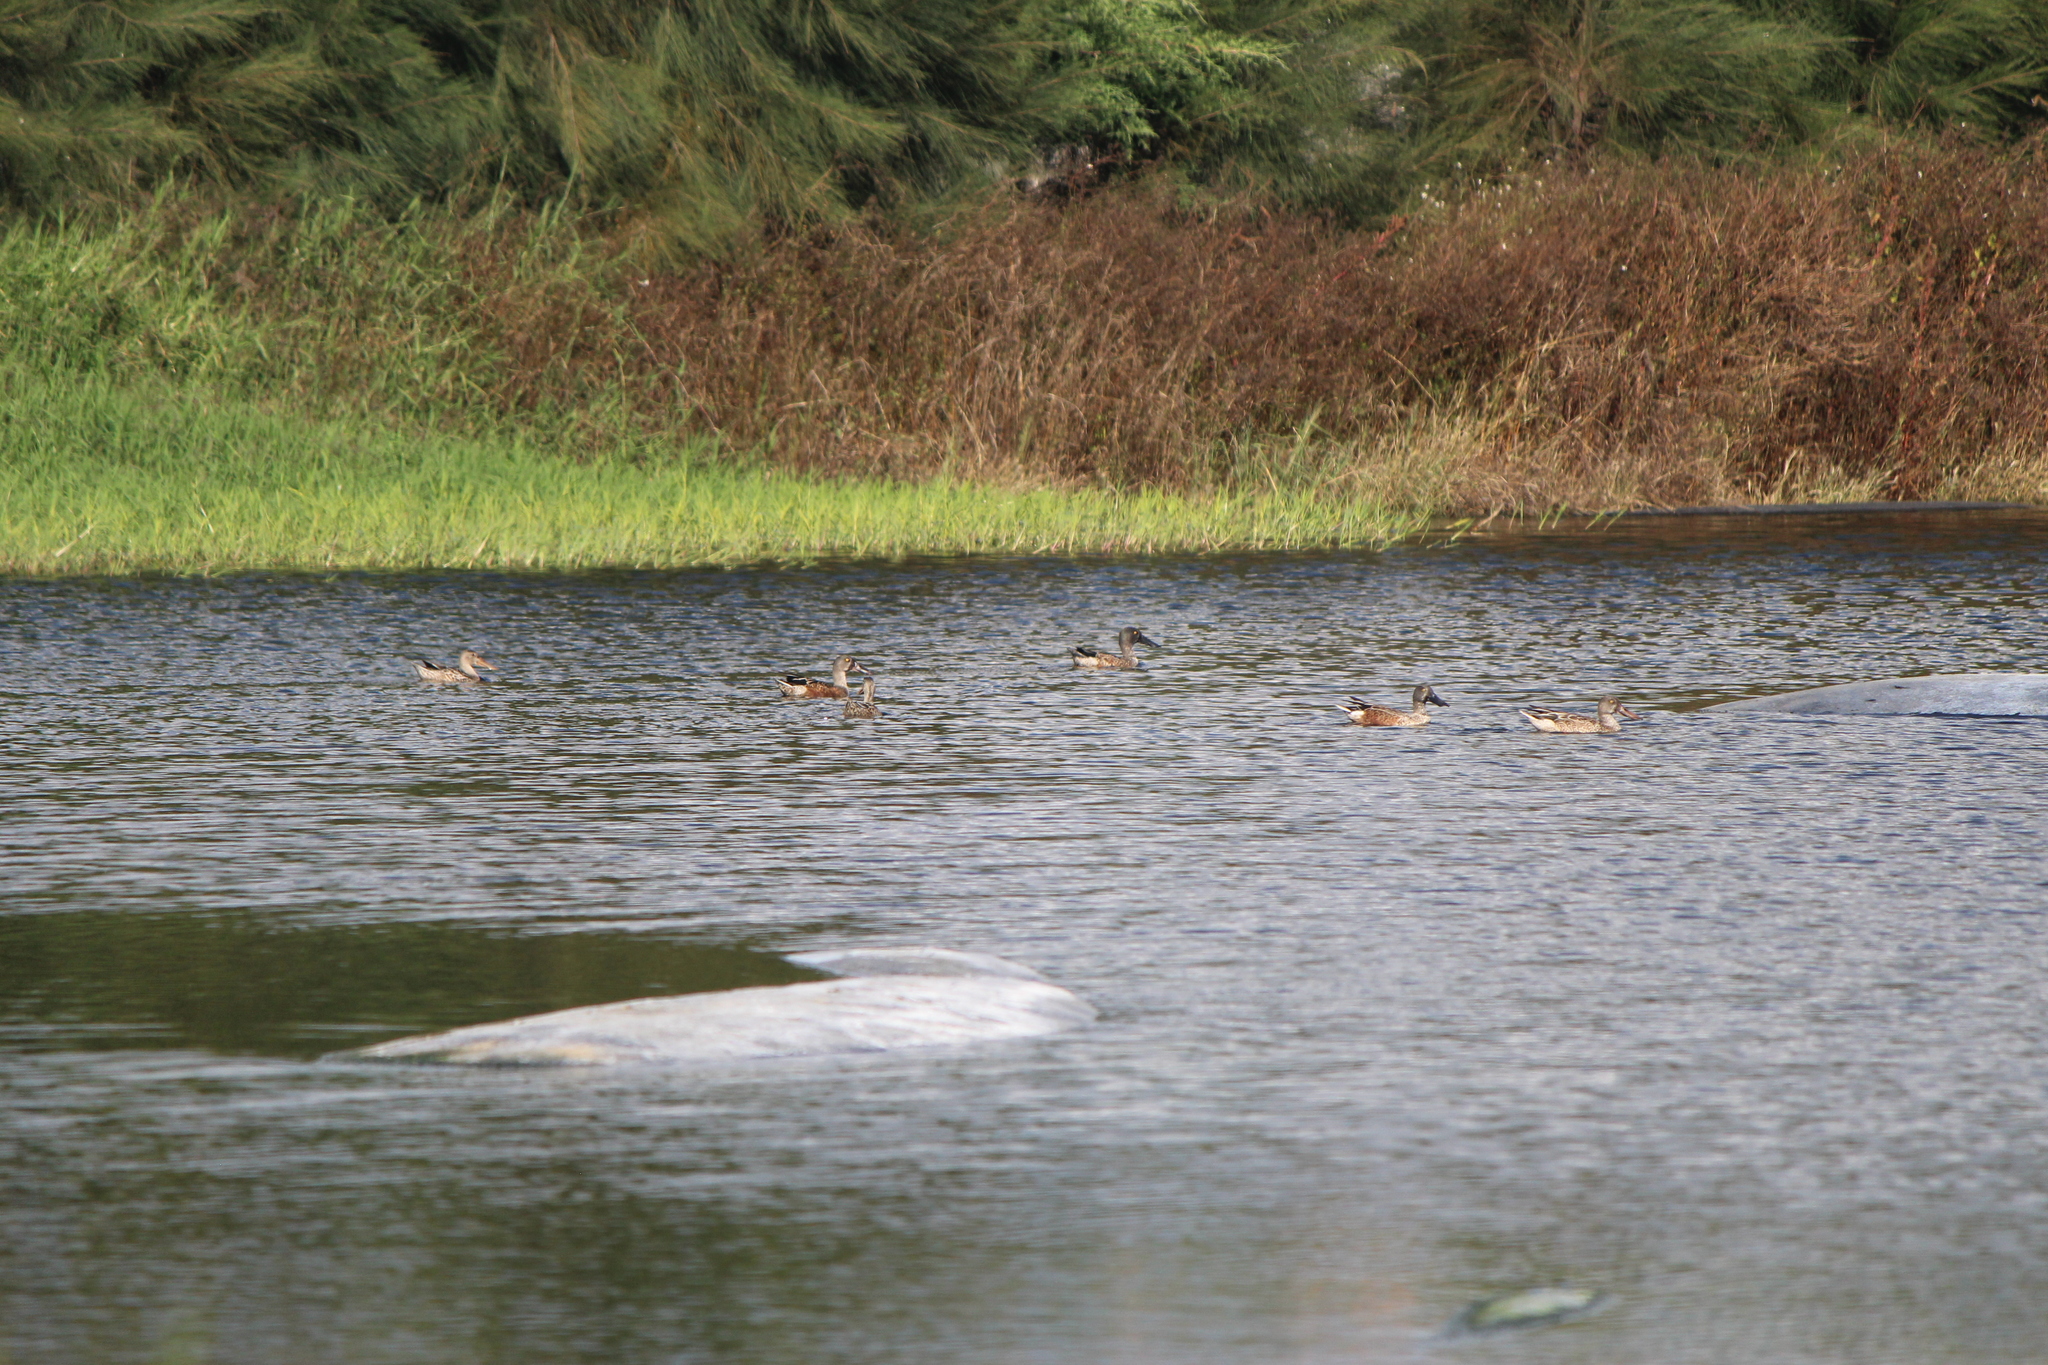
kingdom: Animalia
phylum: Chordata
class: Aves
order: Anseriformes
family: Anatidae
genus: Spatula
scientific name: Spatula clypeata
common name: Northern shoveler
